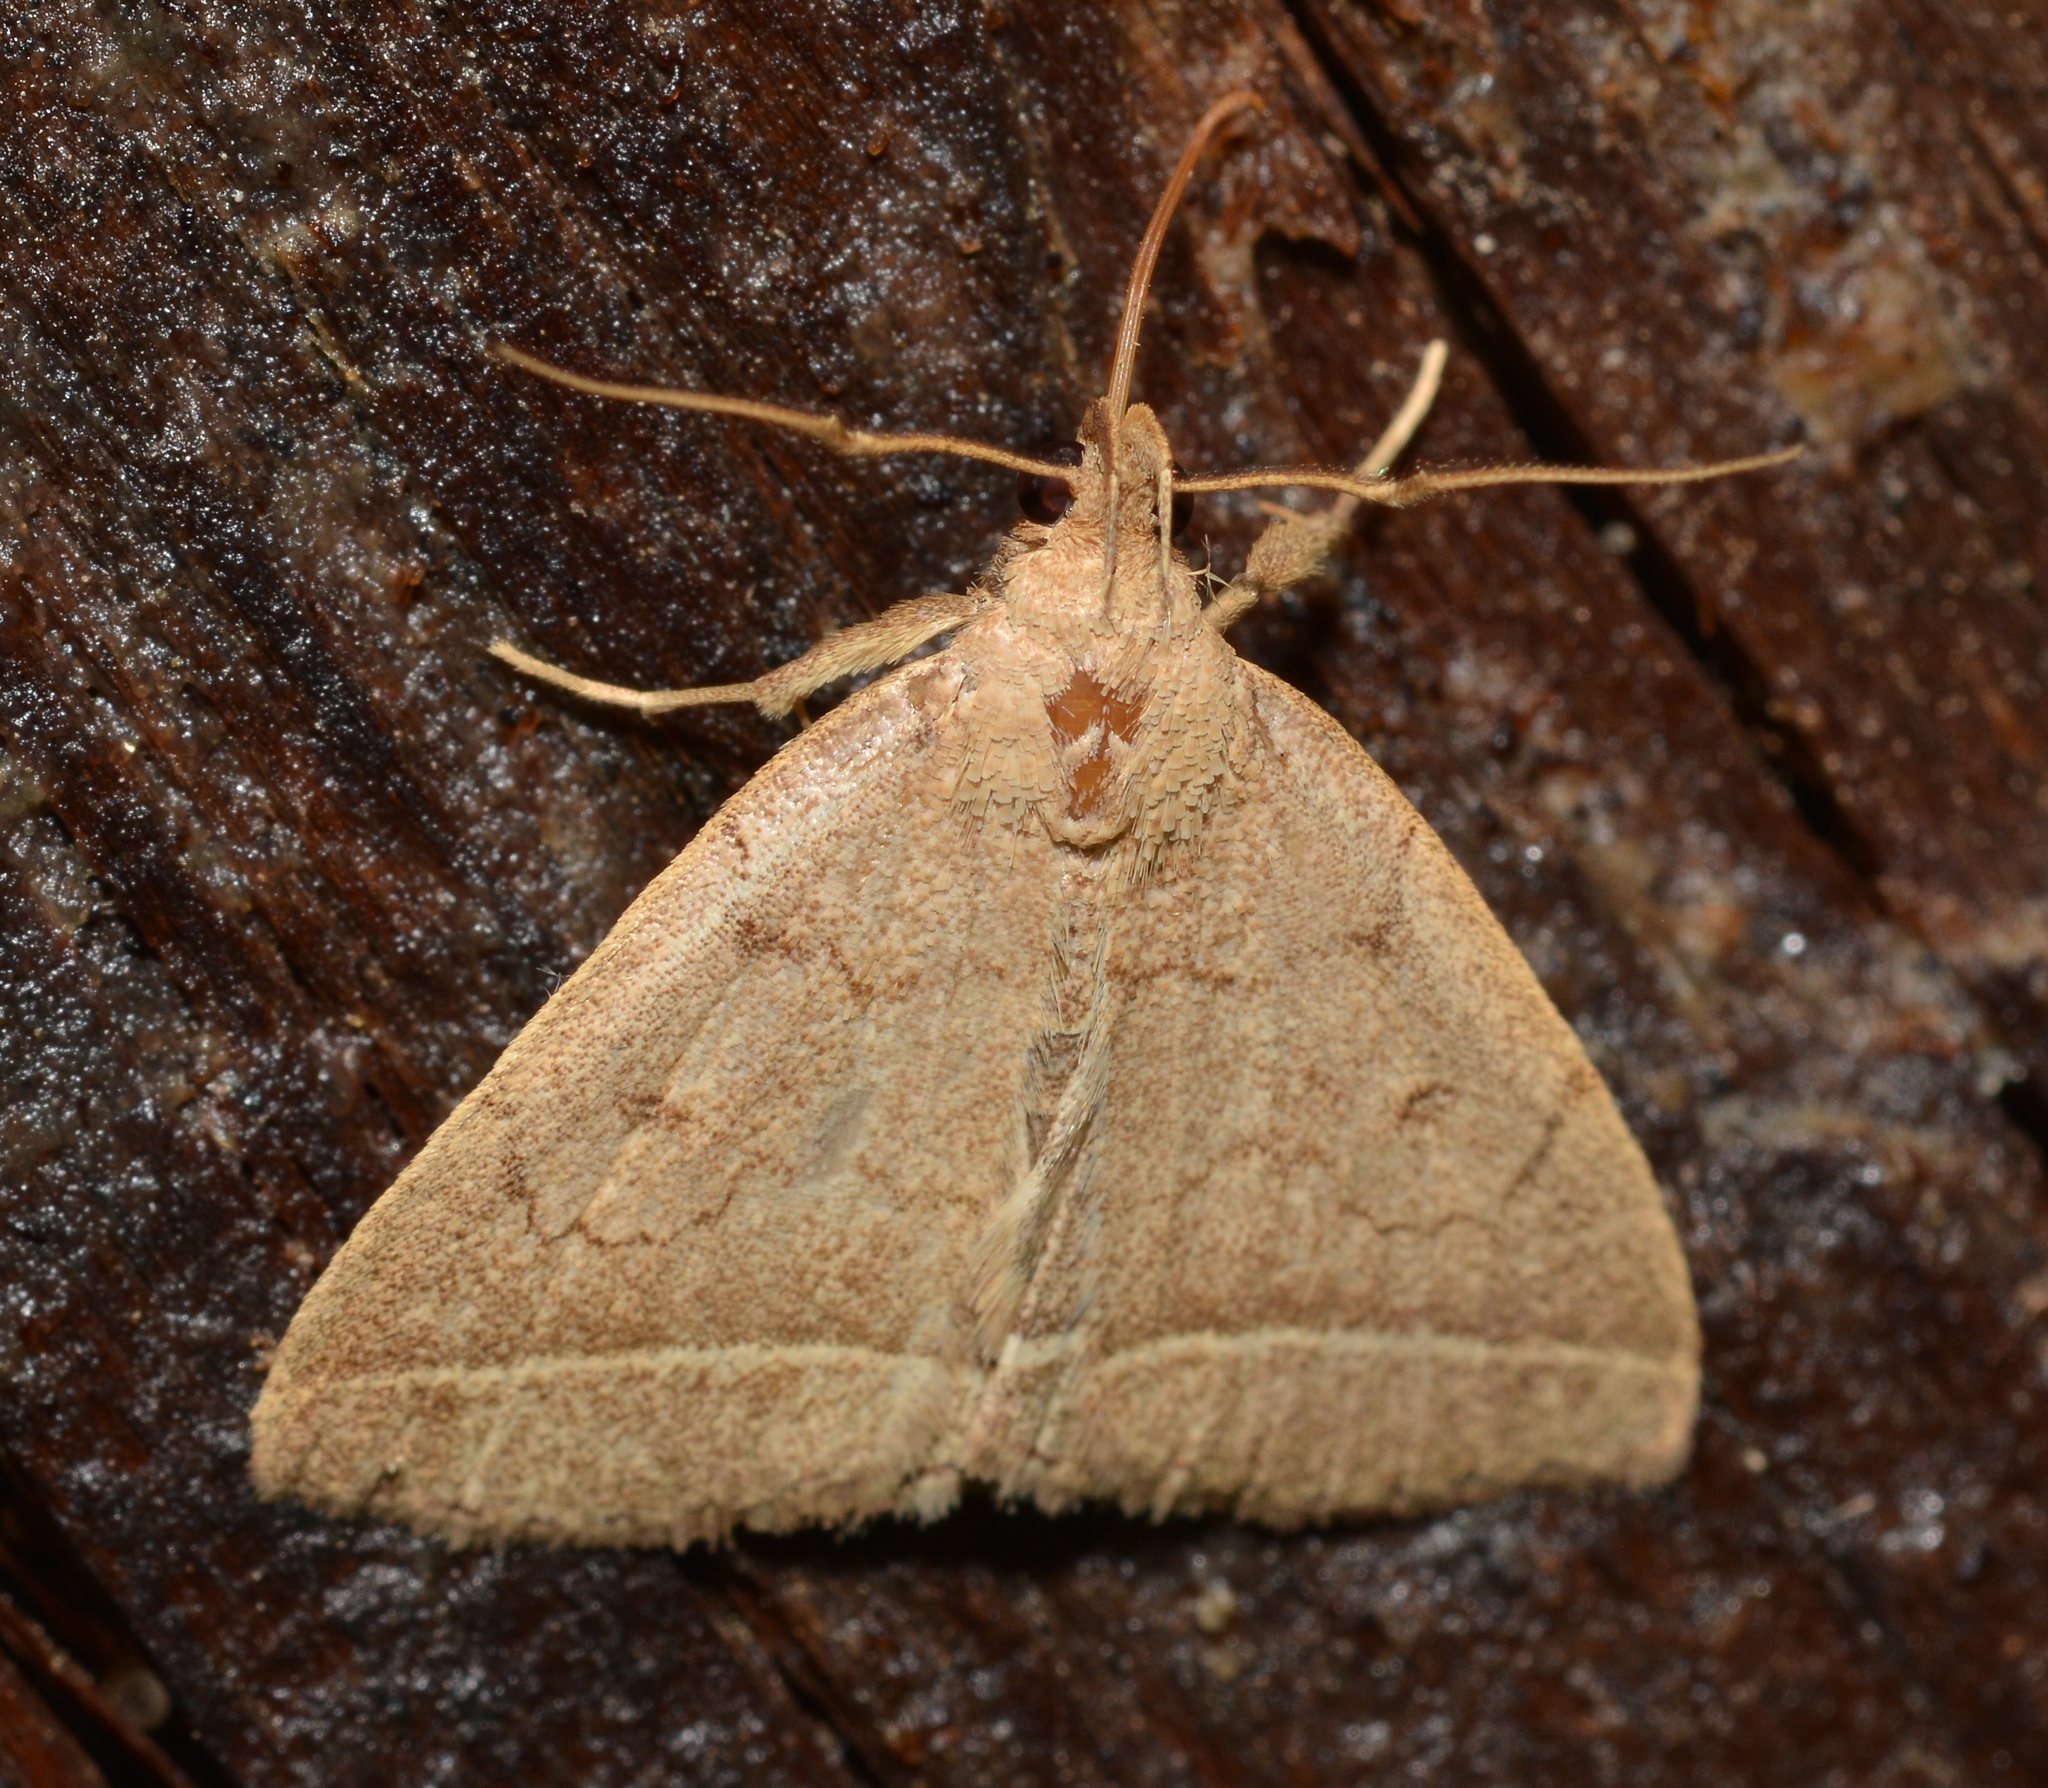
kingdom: Animalia
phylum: Arthropoda
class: Insecta
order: Lepidoptera
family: Erebidae
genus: Zanclognatha
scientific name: Zanclognatha marcidilinea
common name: Yellowish fan-foot
